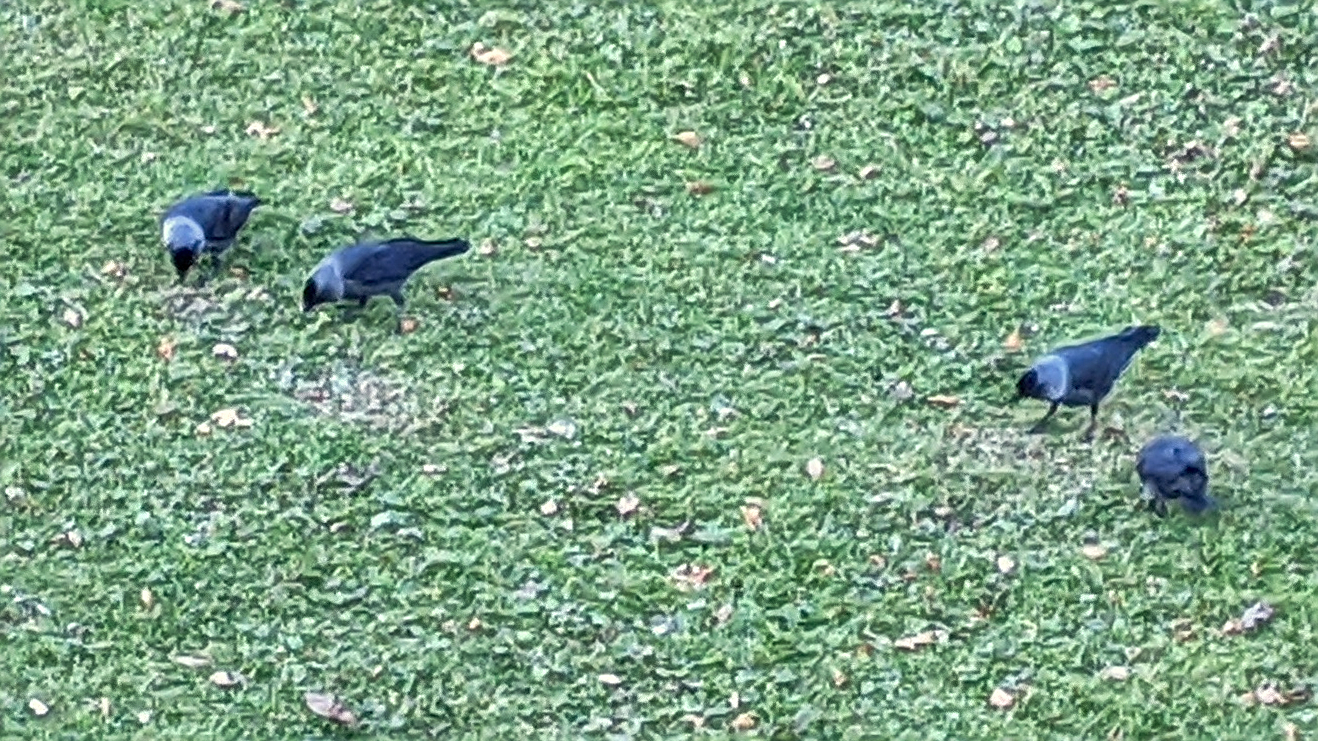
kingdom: Animalia
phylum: Chordata
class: Aves
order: Passeriformes
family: Corvidae
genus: Coloeus
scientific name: Coloeus monedula
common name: Western jackdaw
